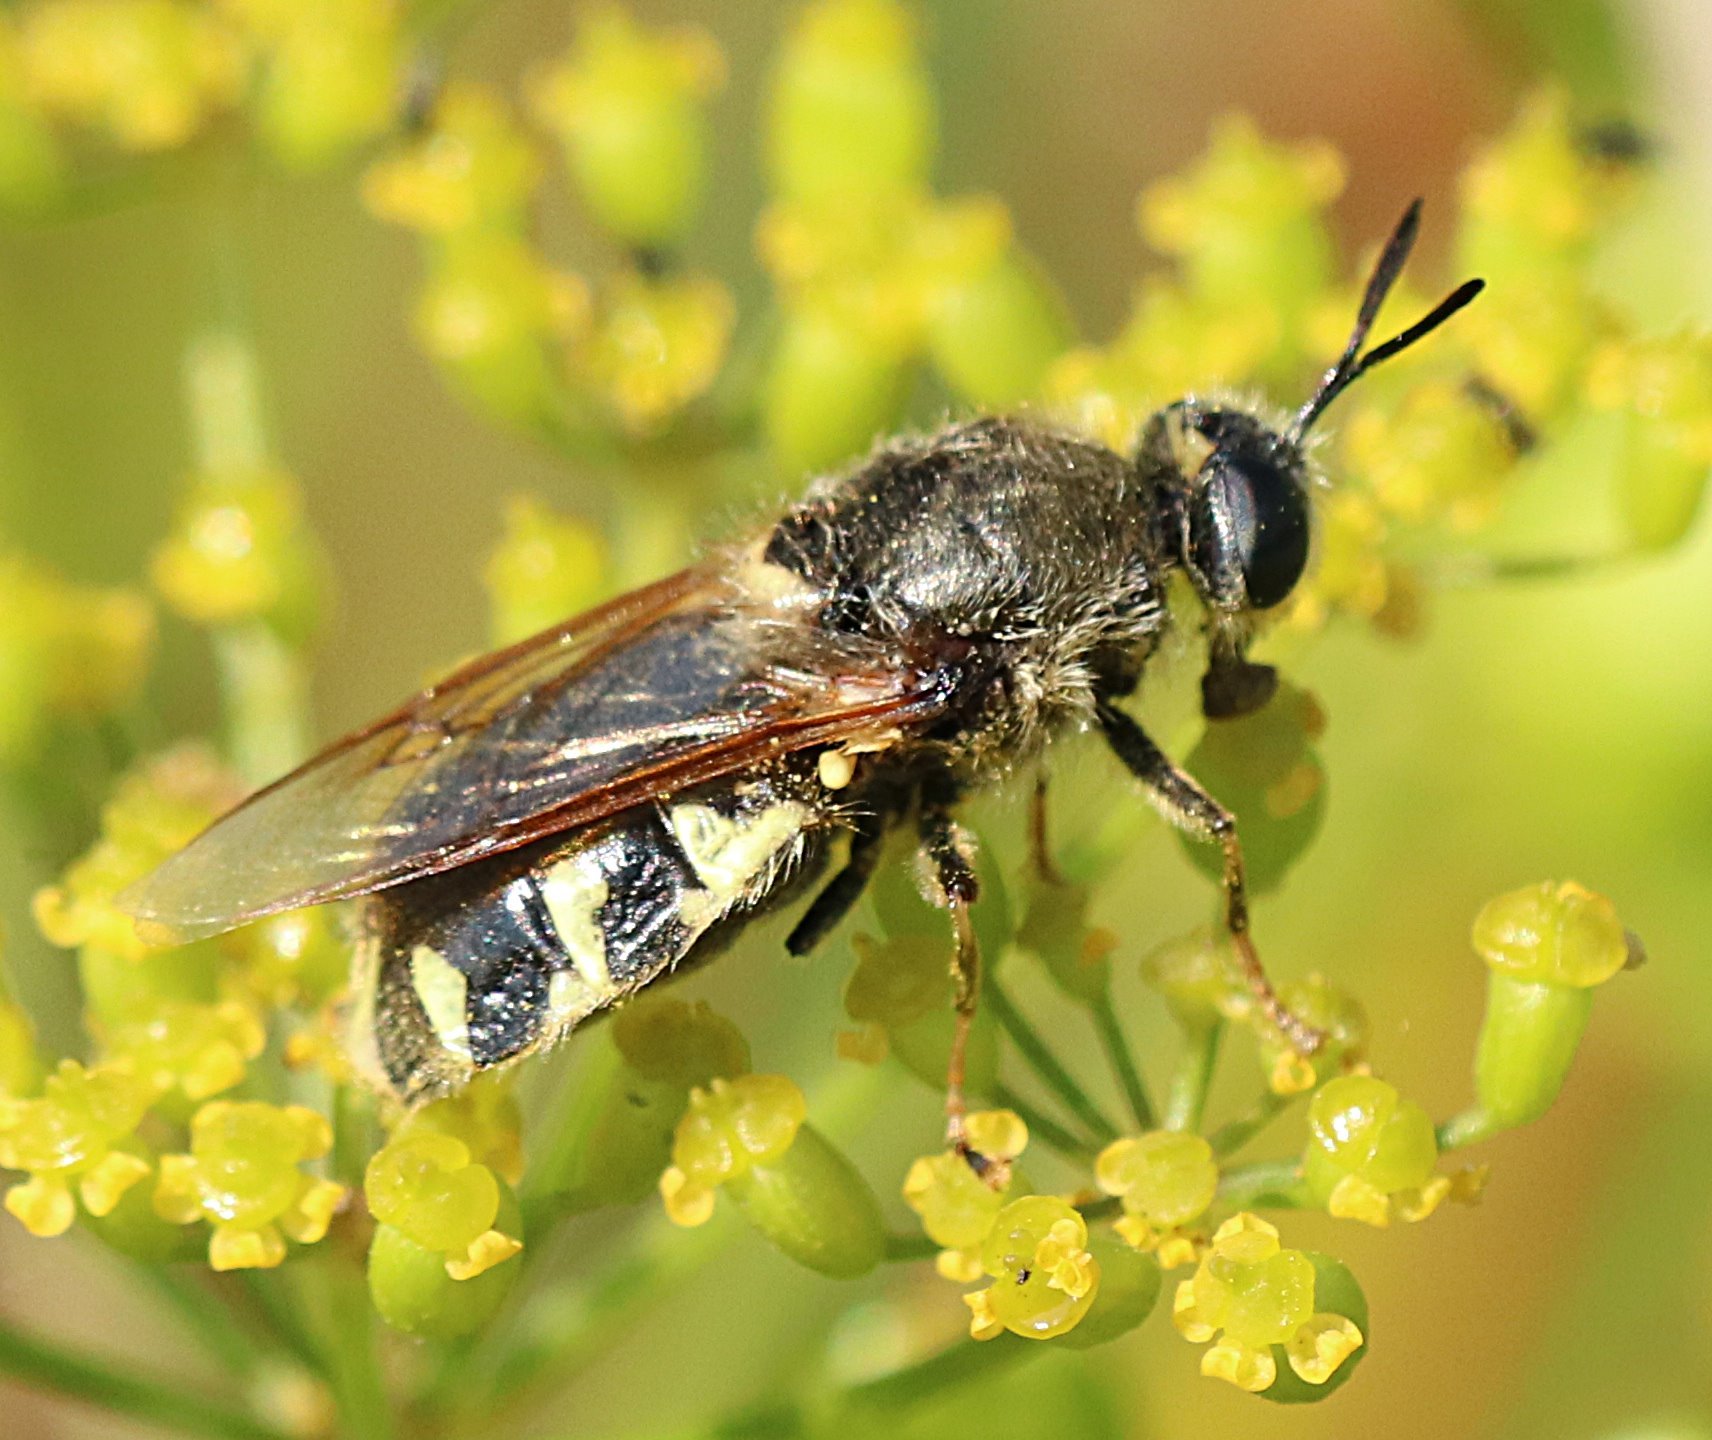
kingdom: Animalia
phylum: Arthropoda
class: Insecta
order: Diptera
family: Stratiomyidae
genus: Stratiomys
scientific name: Stratiomys singularior
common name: Flecked general
